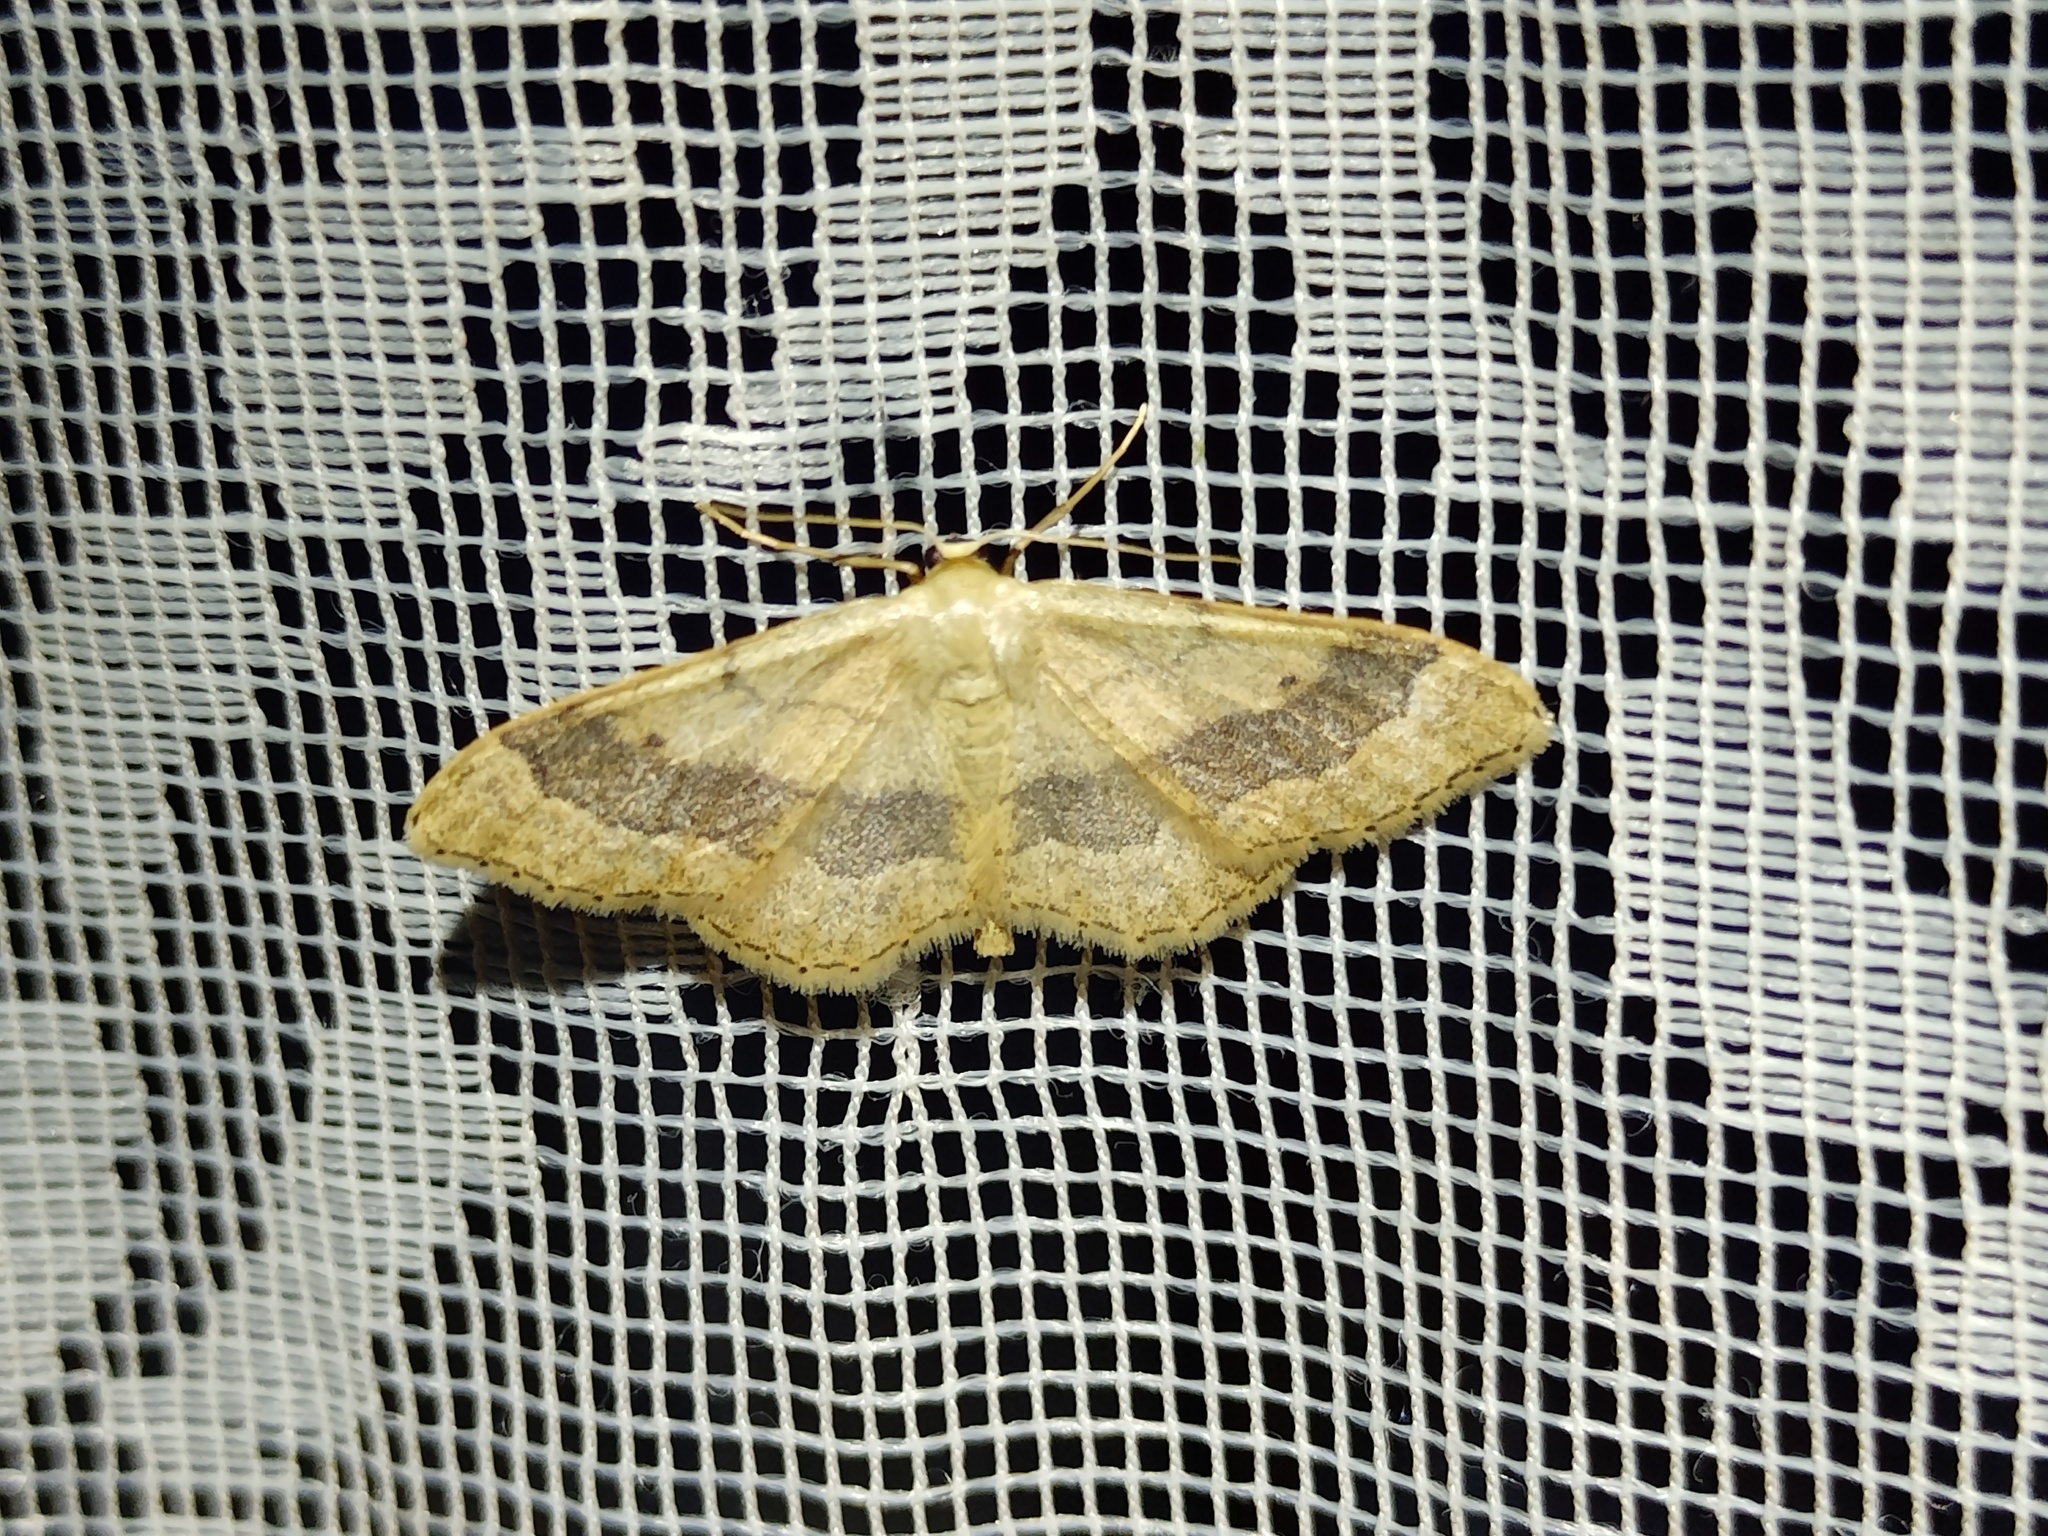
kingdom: Animalia
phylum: Arthropoda
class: Insecta
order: Lepidoptera
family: Geometridae
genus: Idaea
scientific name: Idaea aversata
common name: Riband wave
